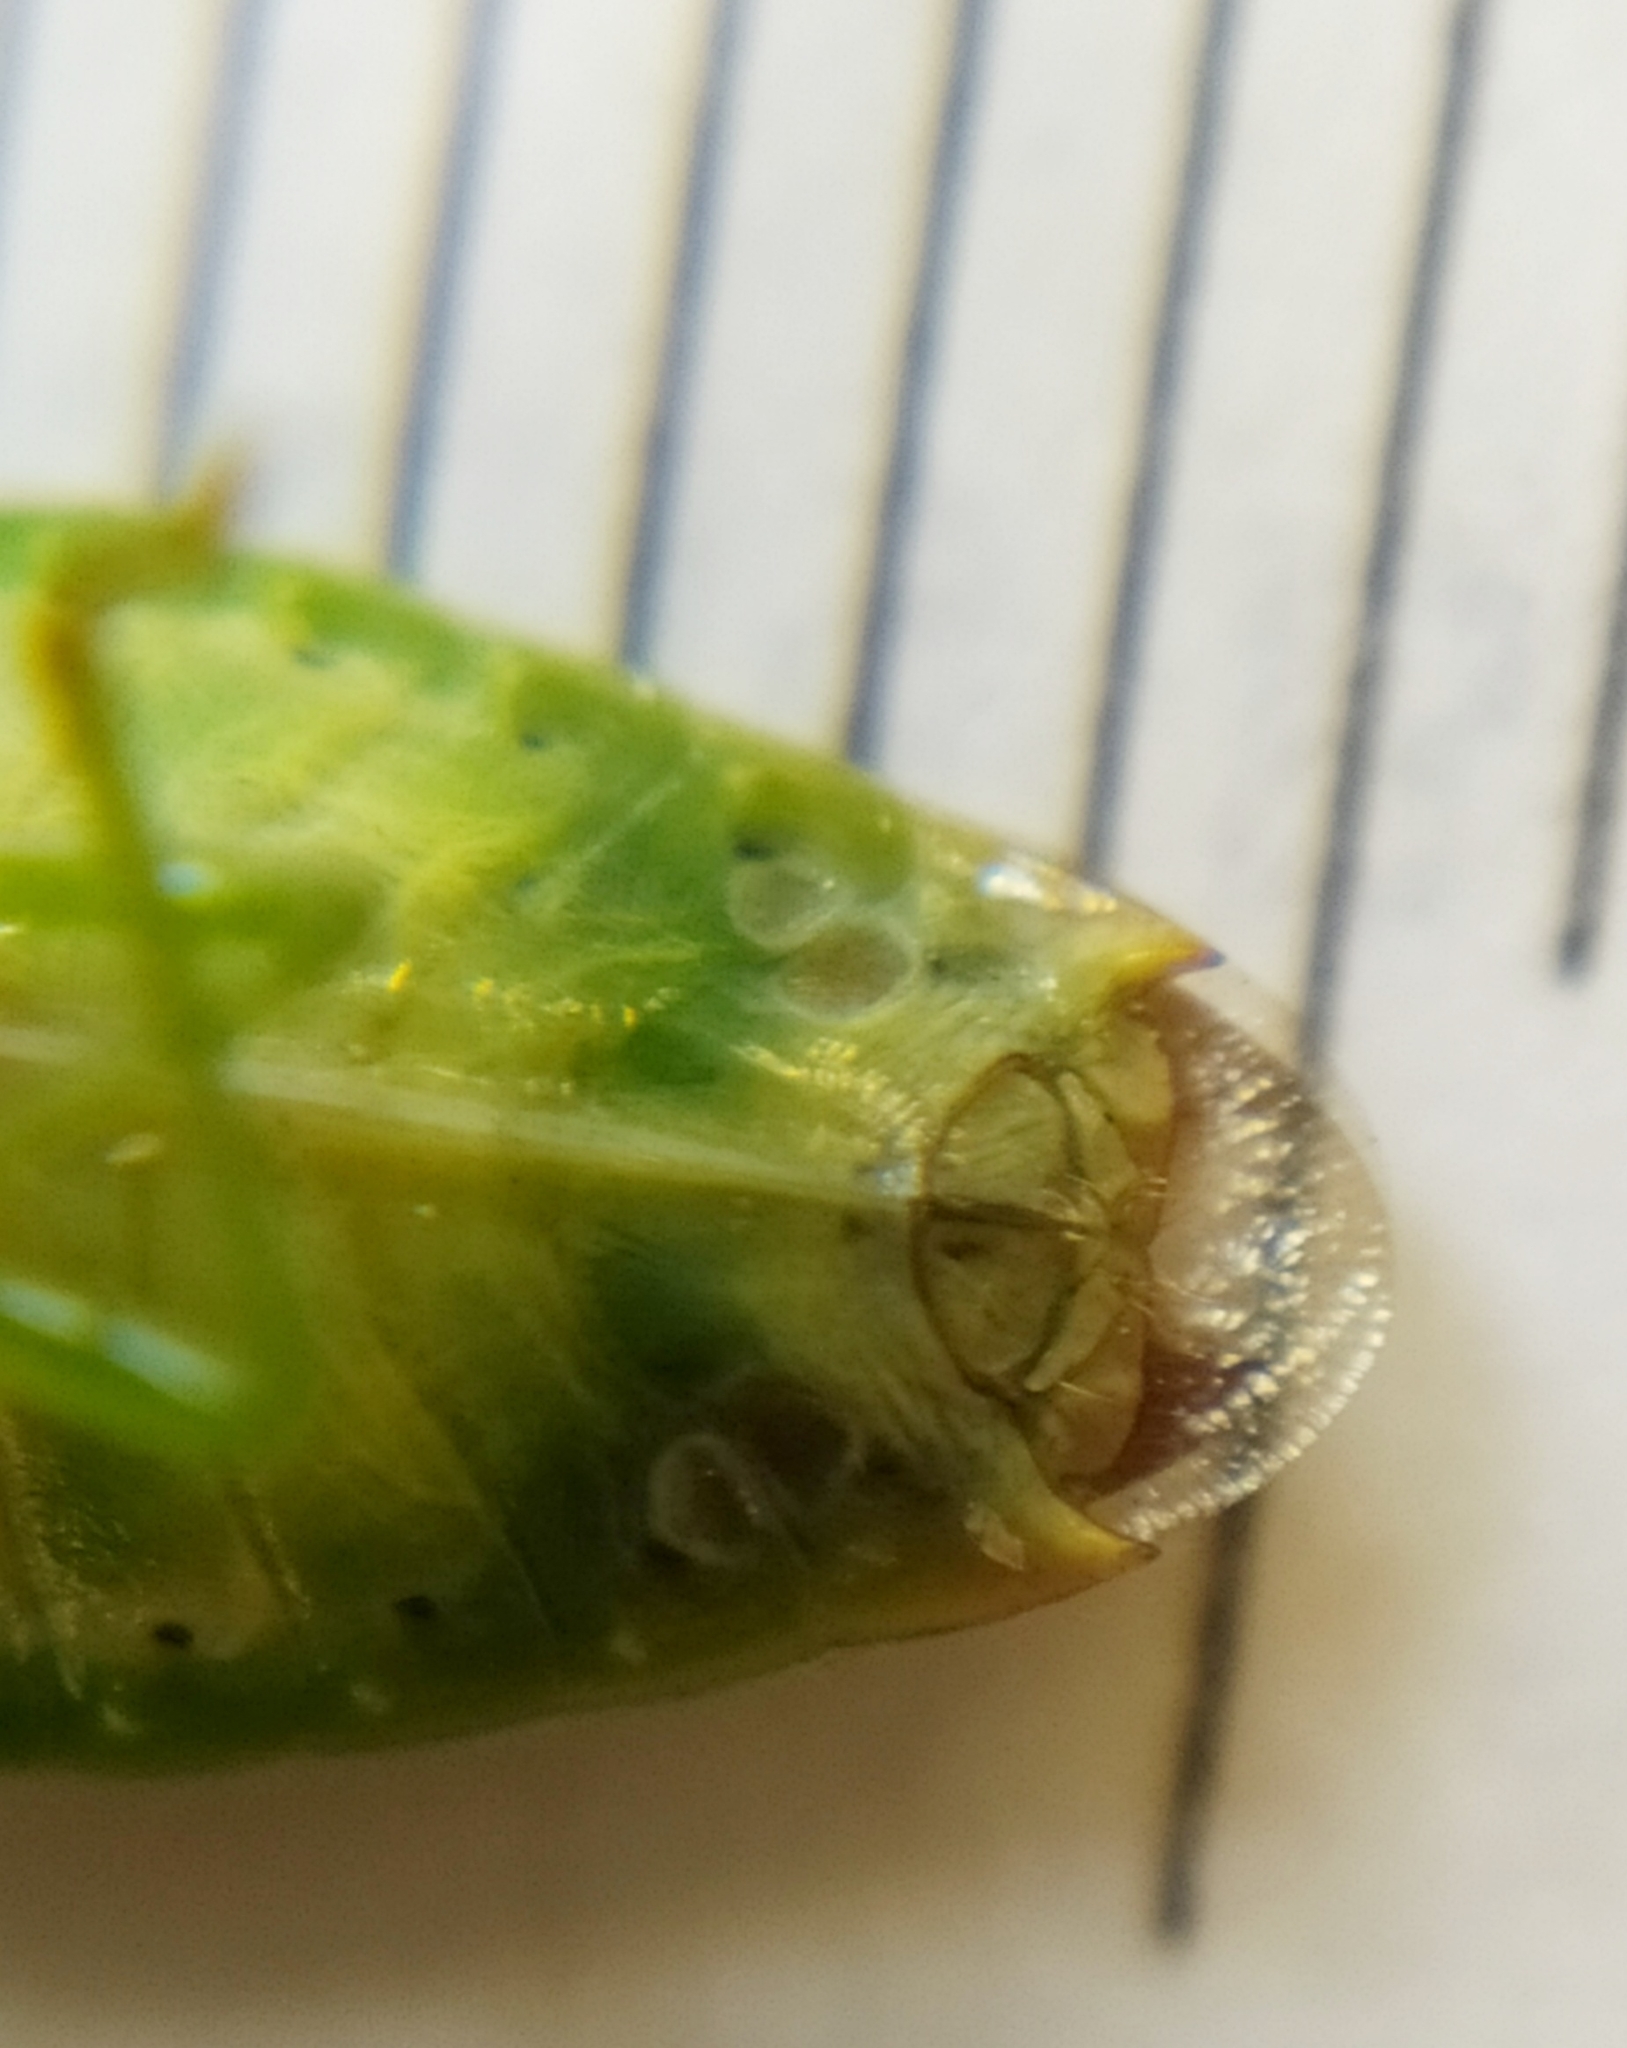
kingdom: Animalia
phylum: Arthropoda
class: Insecta
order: Hemiptera
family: Acanthosomatidae
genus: Elasmostethus
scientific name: Elasmostethus minor
